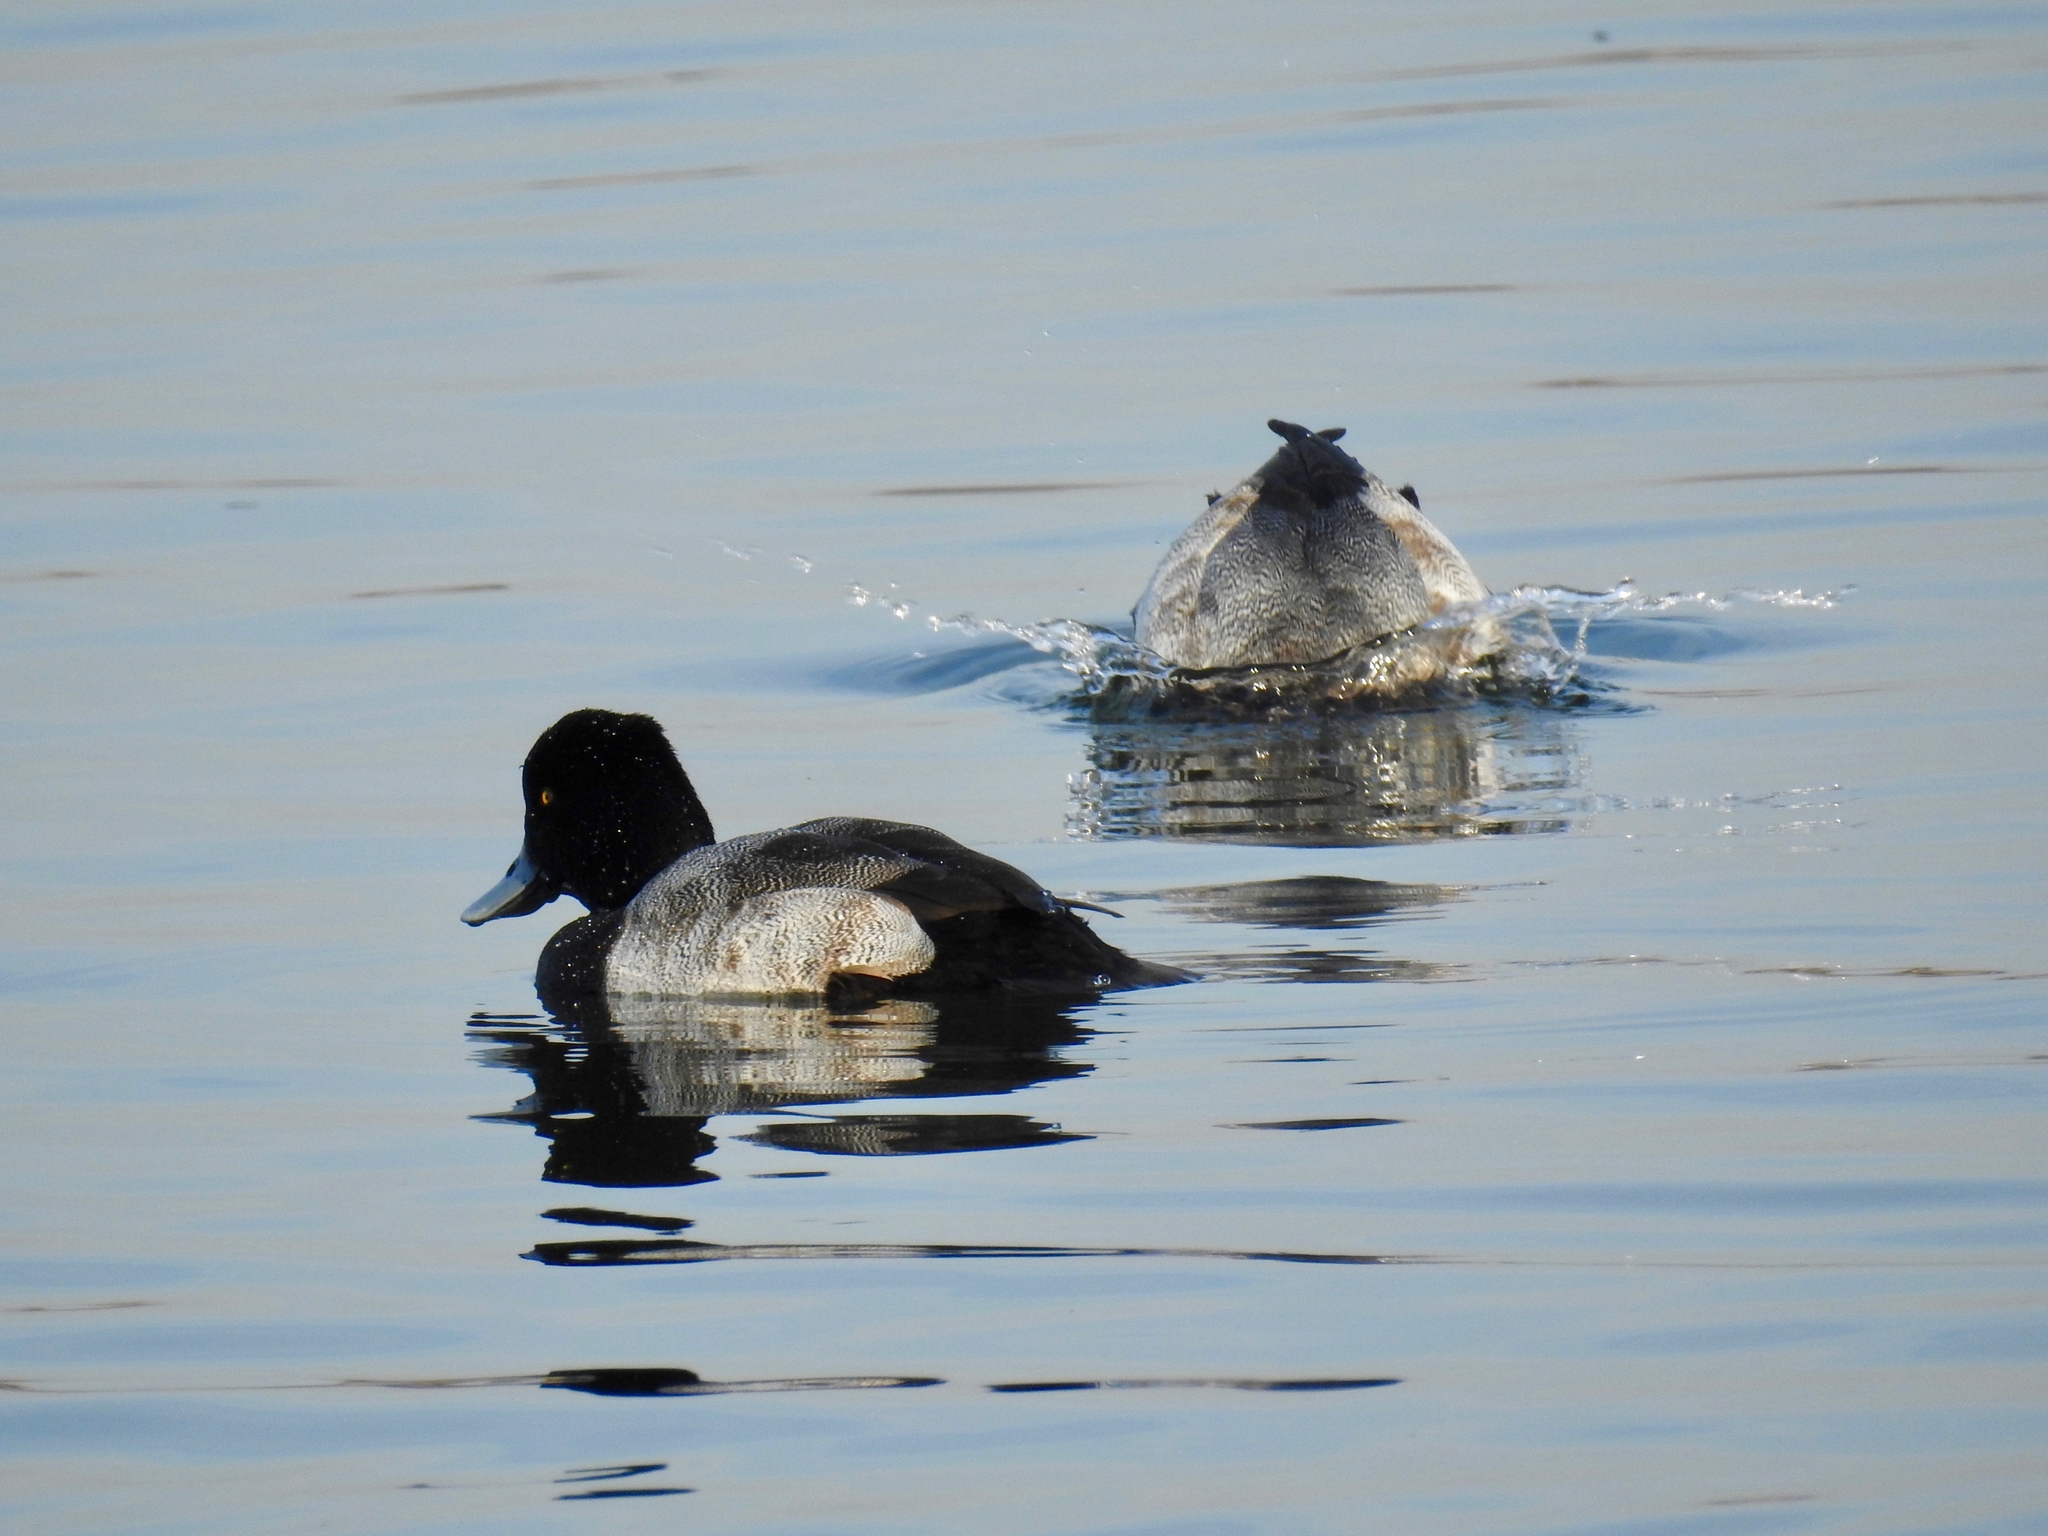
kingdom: Animalia
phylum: Chordata
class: Aves
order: Anseriformes
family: Anatidae
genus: Aythya
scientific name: Aythya affinis
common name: Lesser scaup
